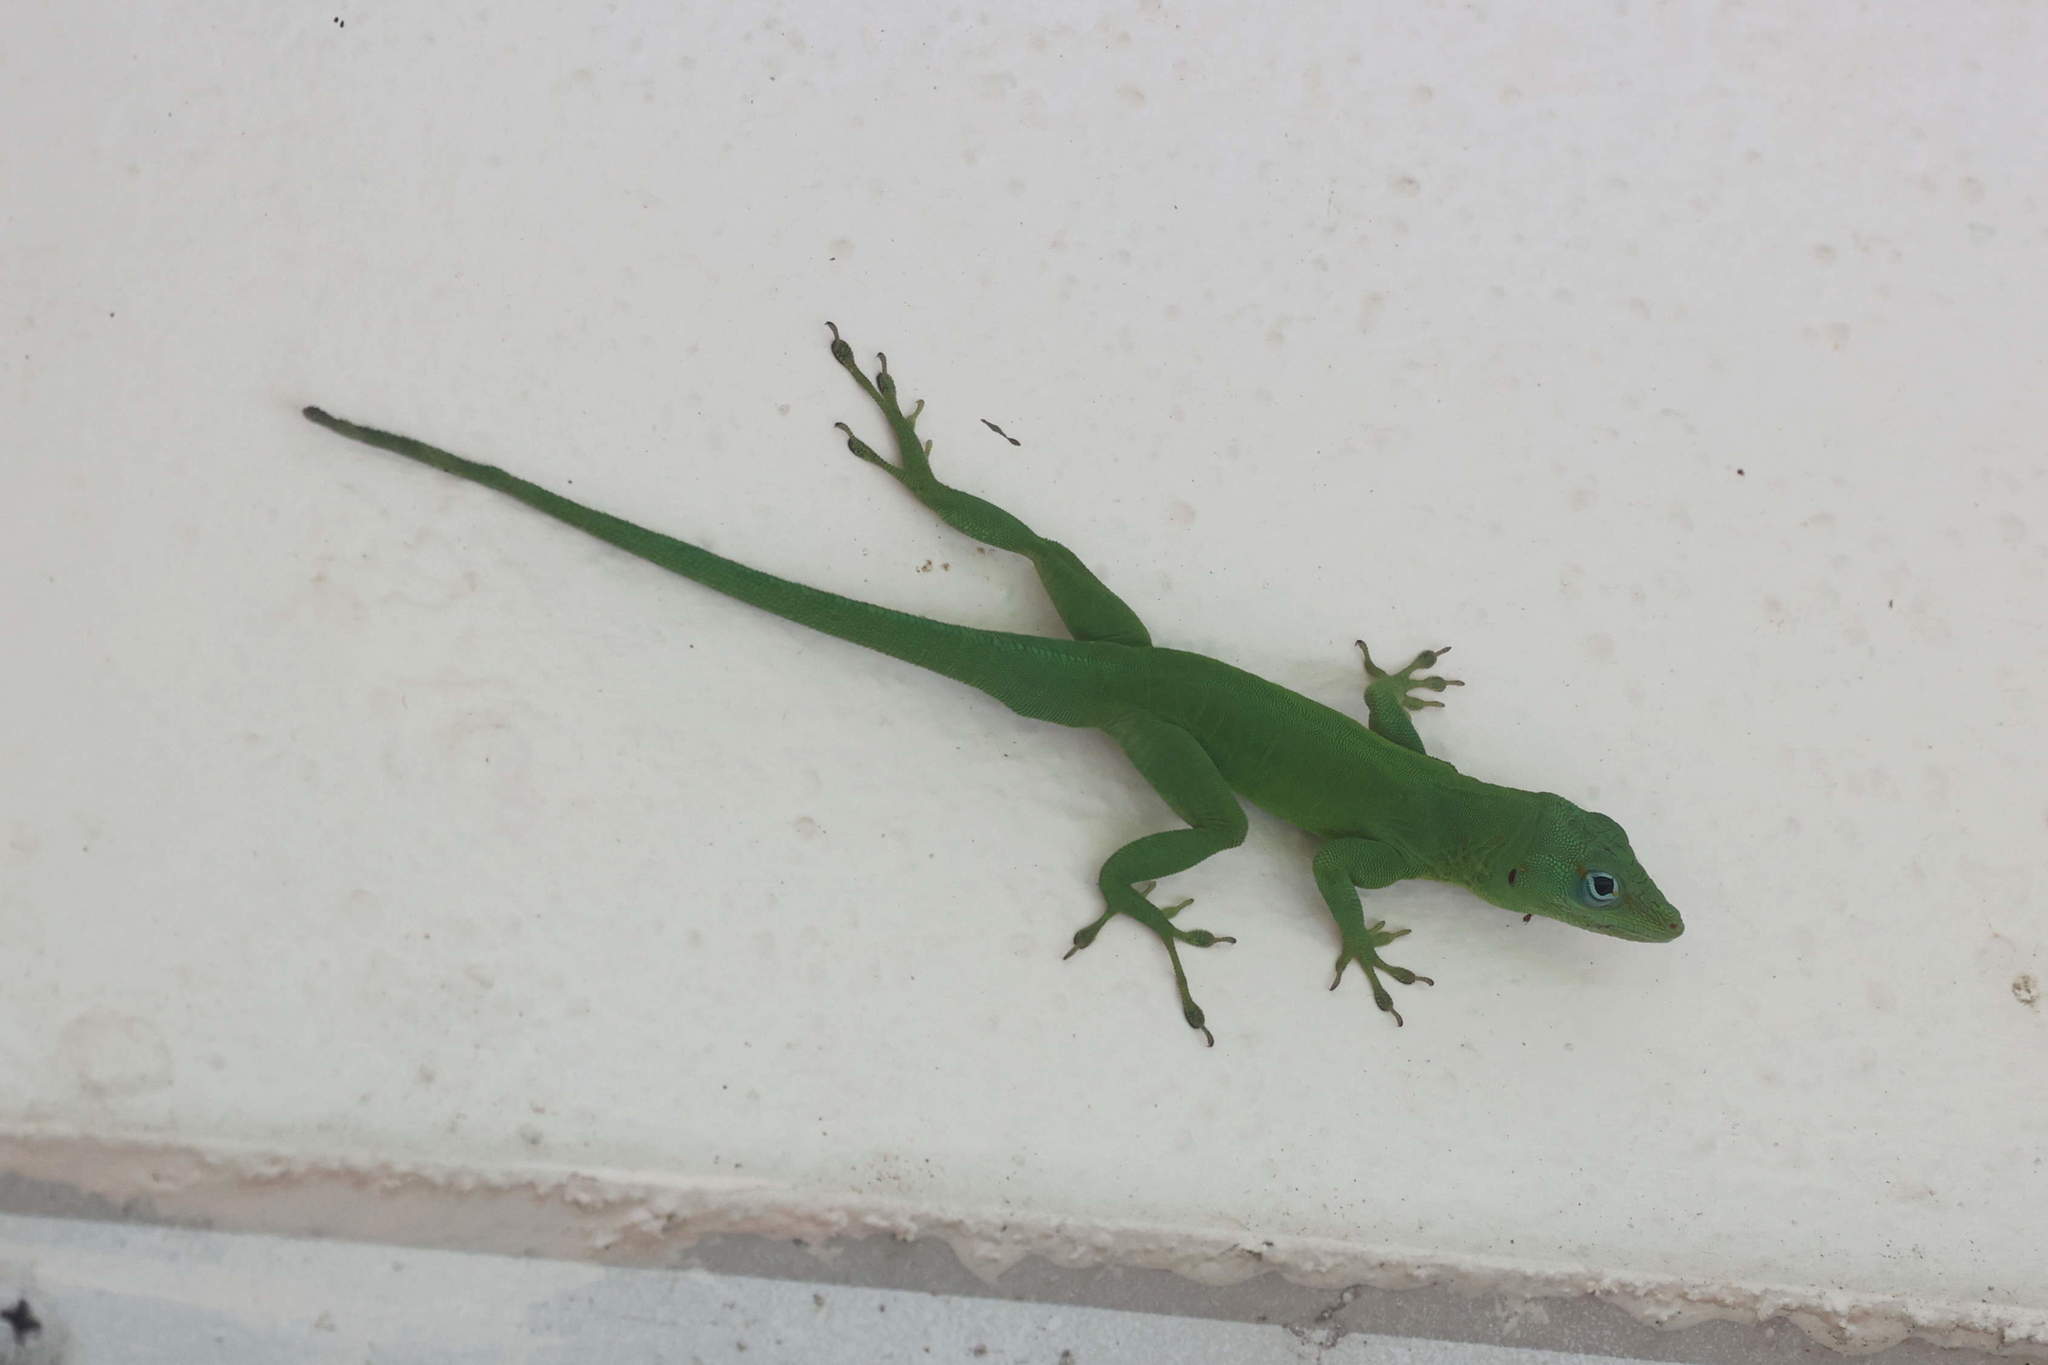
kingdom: Animalia
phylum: Chordata
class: Squamata
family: Dactyloidae
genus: Anolis
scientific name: Anolis marmoratus
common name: Guadeloupe anole
